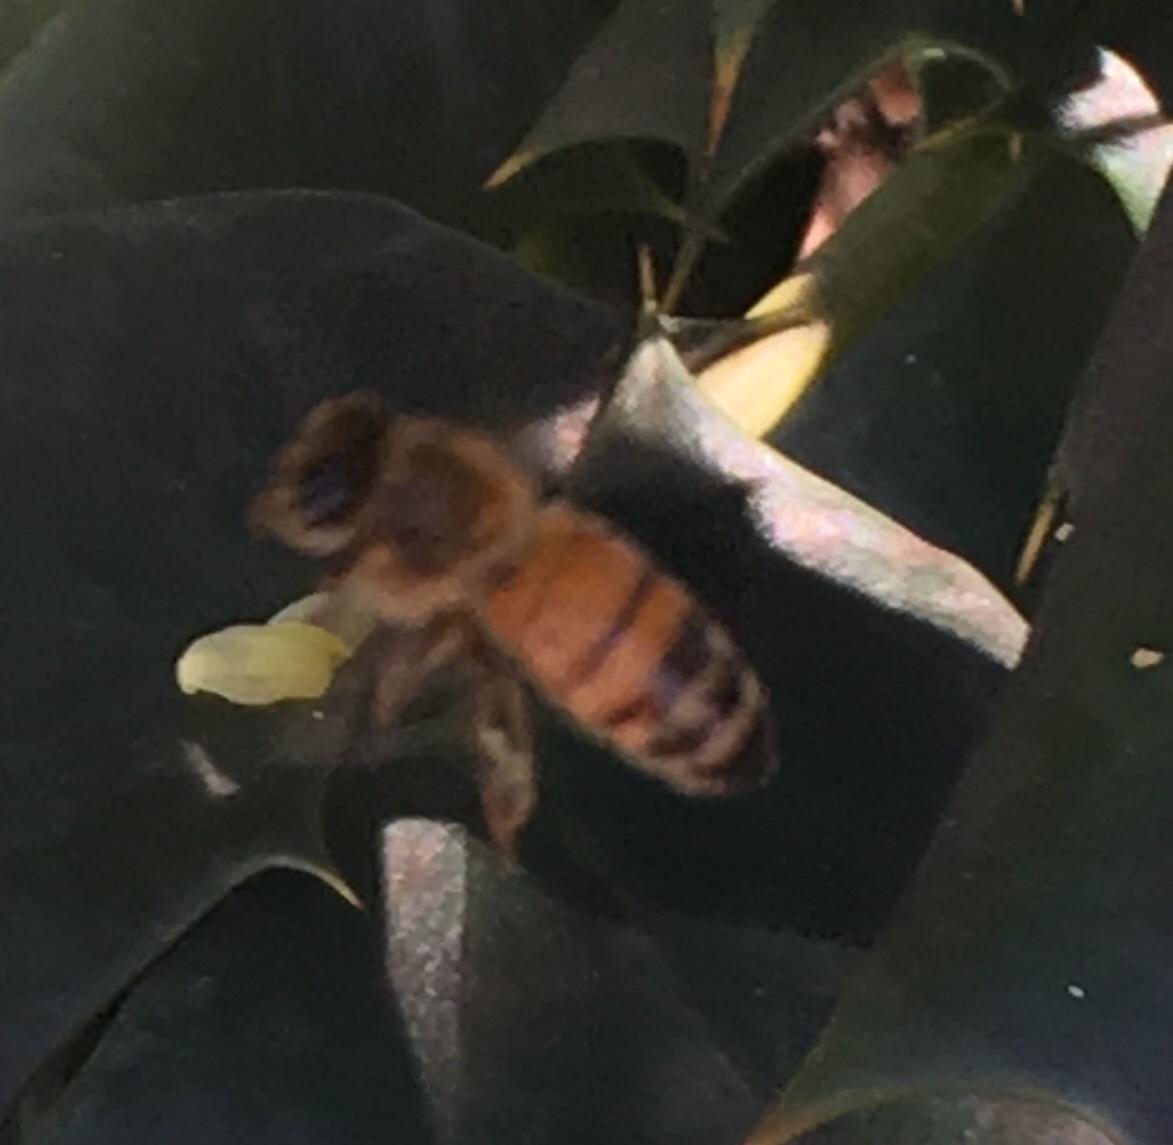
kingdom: Animalia
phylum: Arthropoda
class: Insecta
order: Hymenoptera
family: Apidae
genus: Apis
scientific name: Apis mellifera
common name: Honey bee
